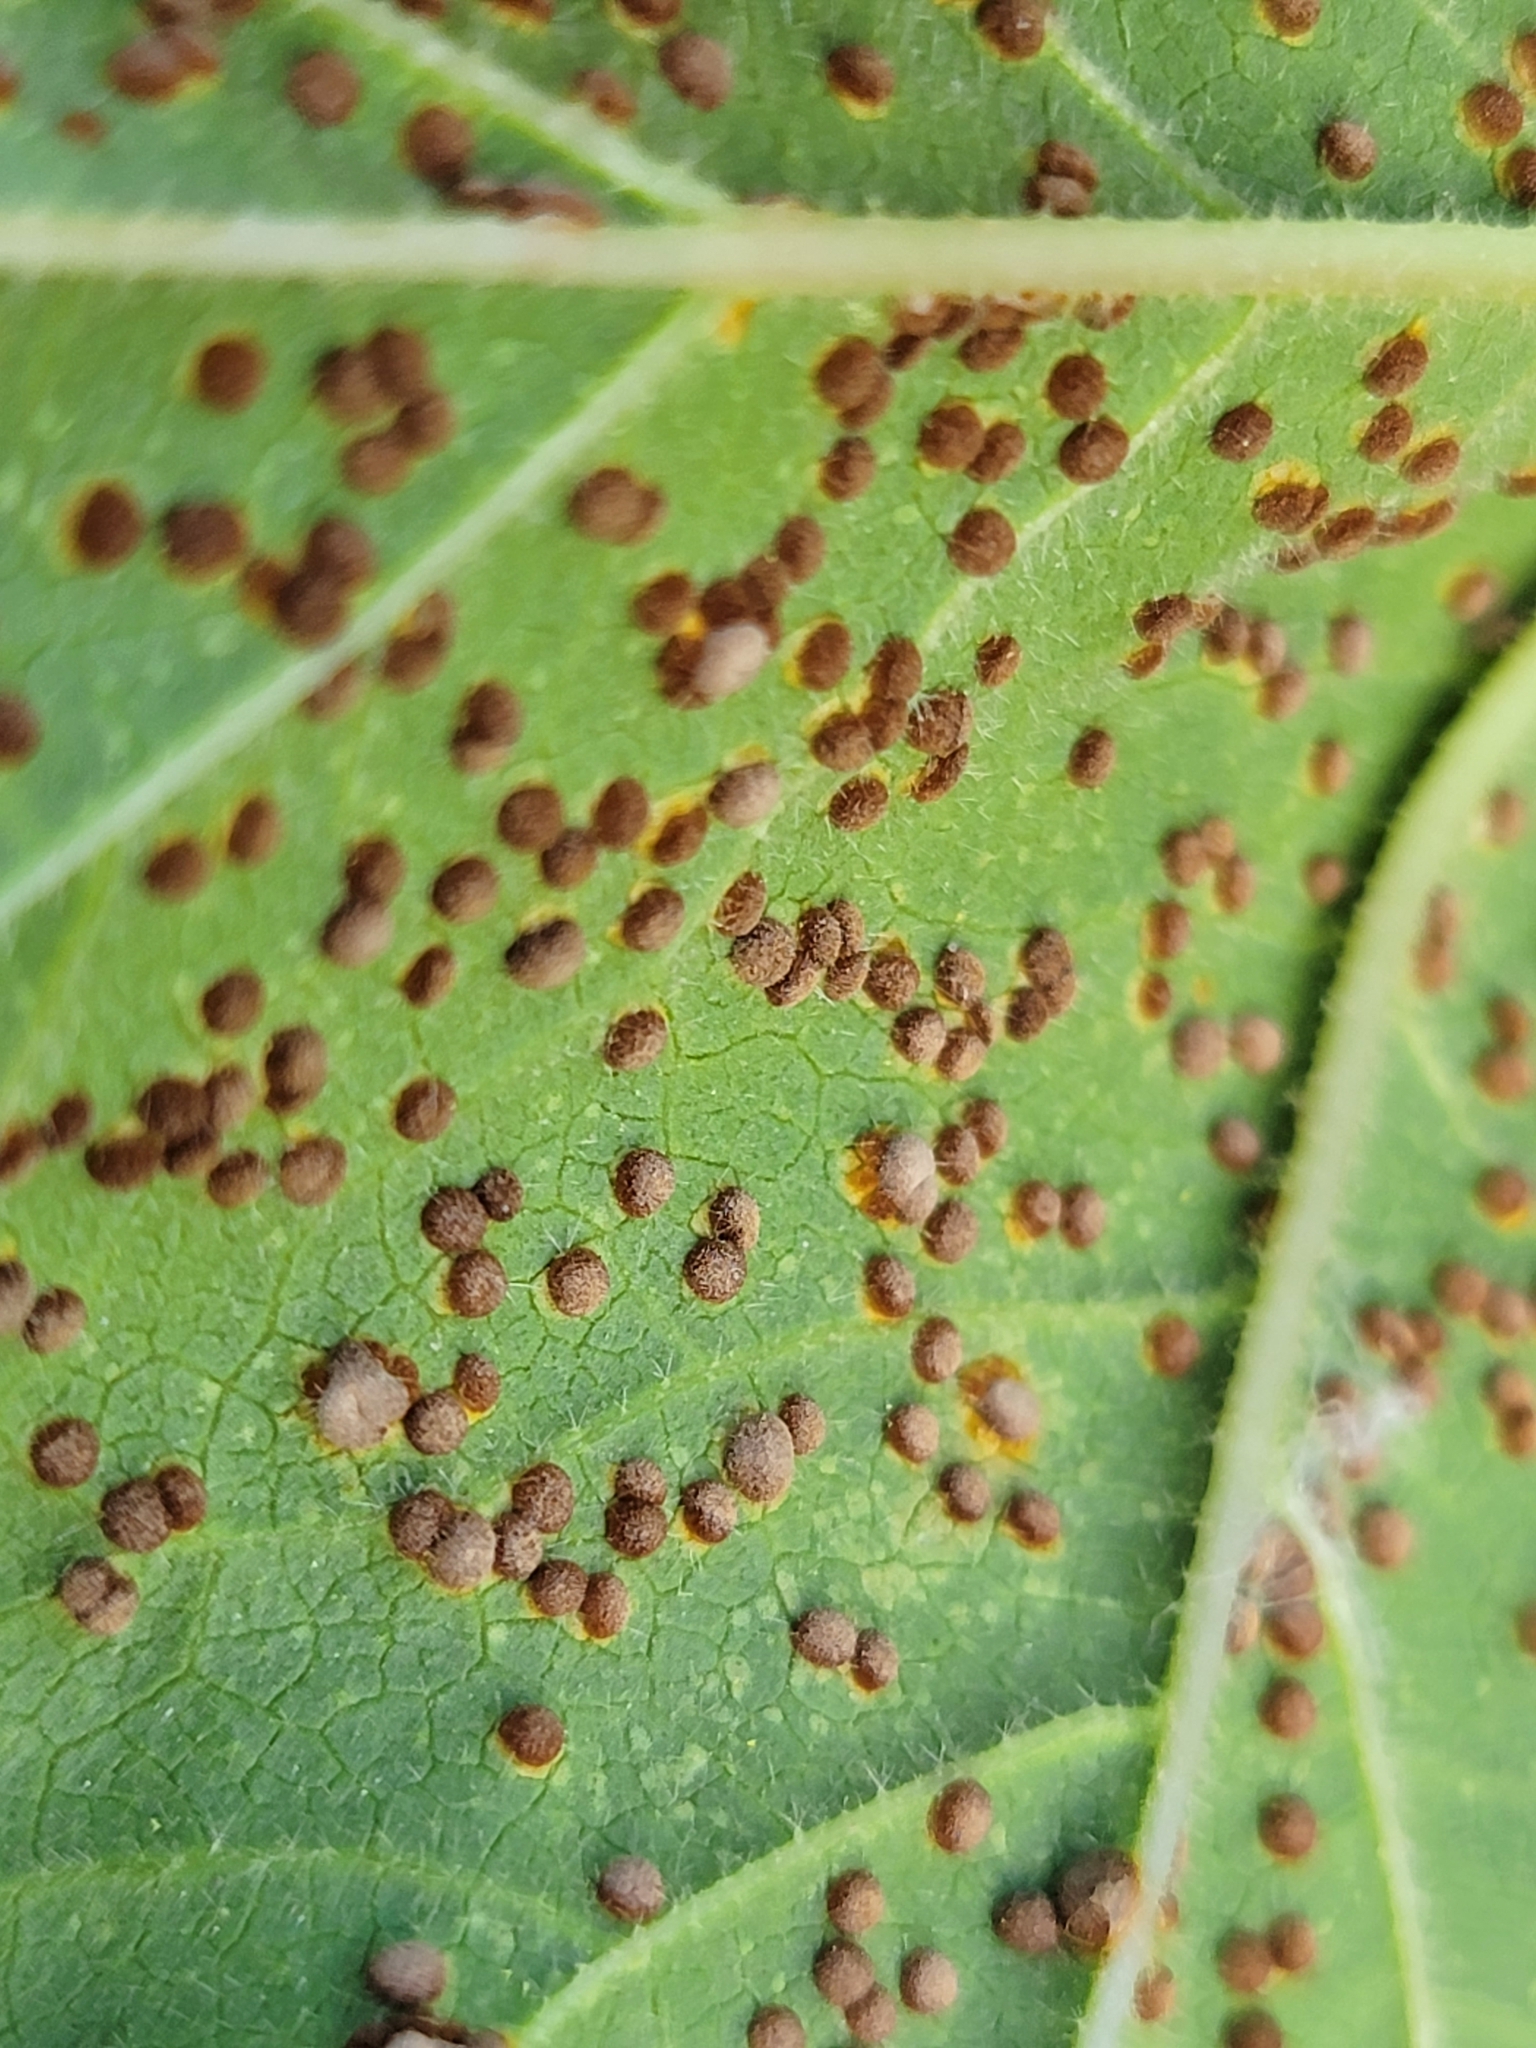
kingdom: Fungi
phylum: Basidiomycota
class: Pucciniomycetes
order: Pucciniales
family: Pucciniaceae
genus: Puccinia
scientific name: Puccinia malvacearum
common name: Hollyhock rust
